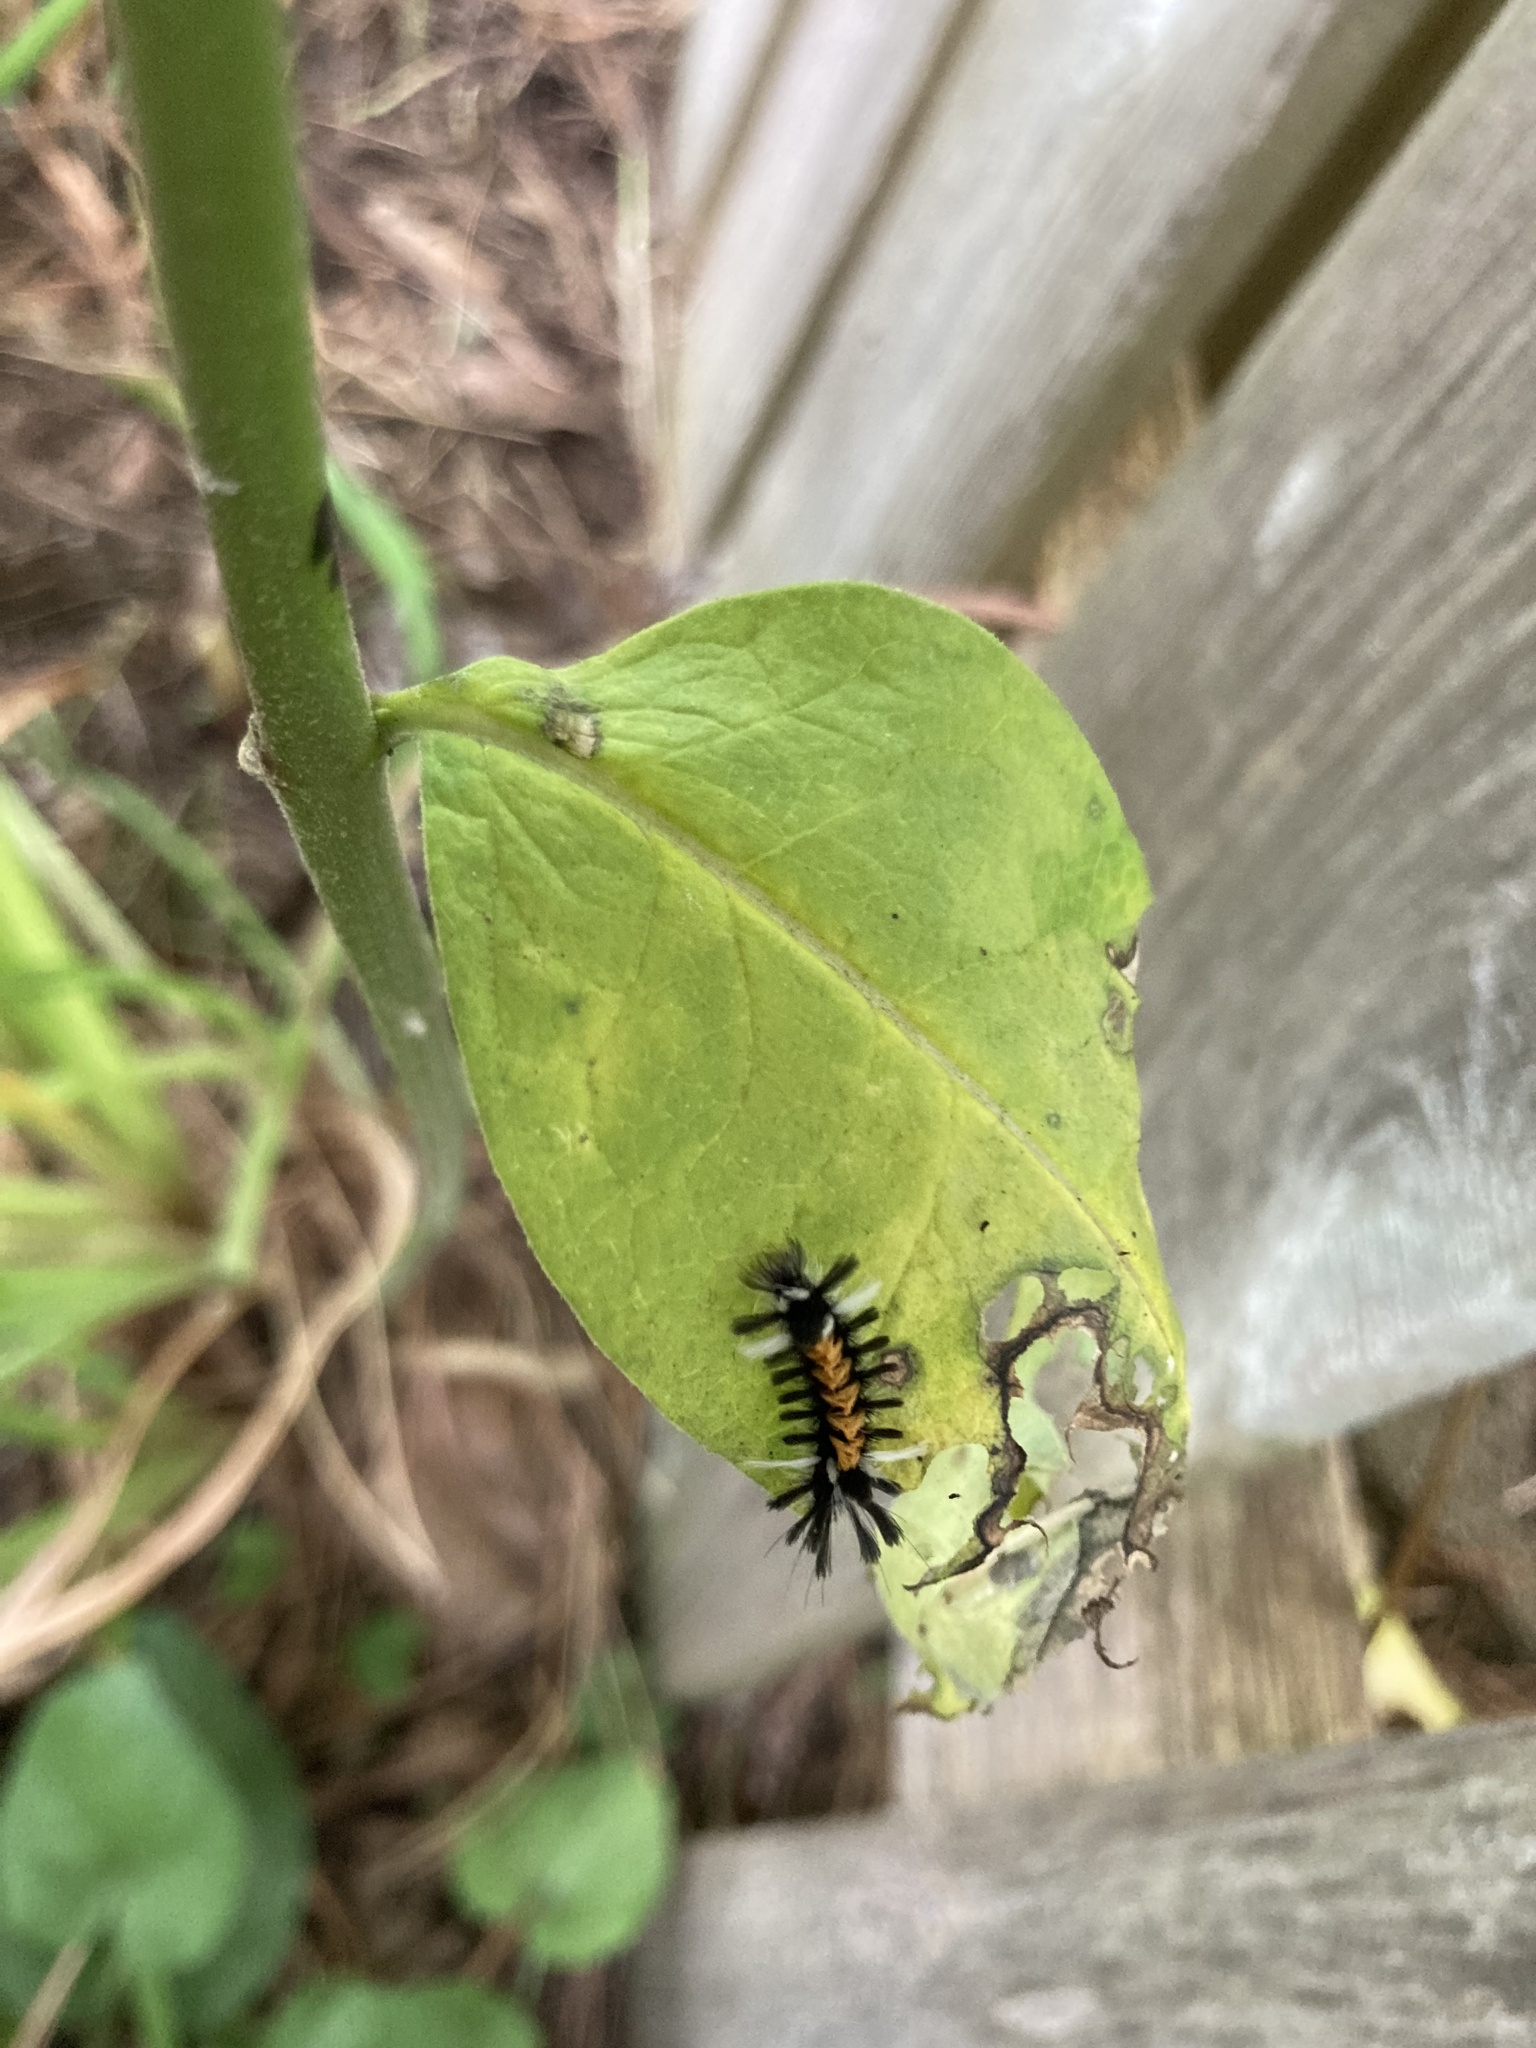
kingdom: Animalia
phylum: Arthropoda
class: Insecta
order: Lepidoptera
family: Erebidae
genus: Euchaetes
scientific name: Euchaetes egle
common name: Milkweed tussock moth
